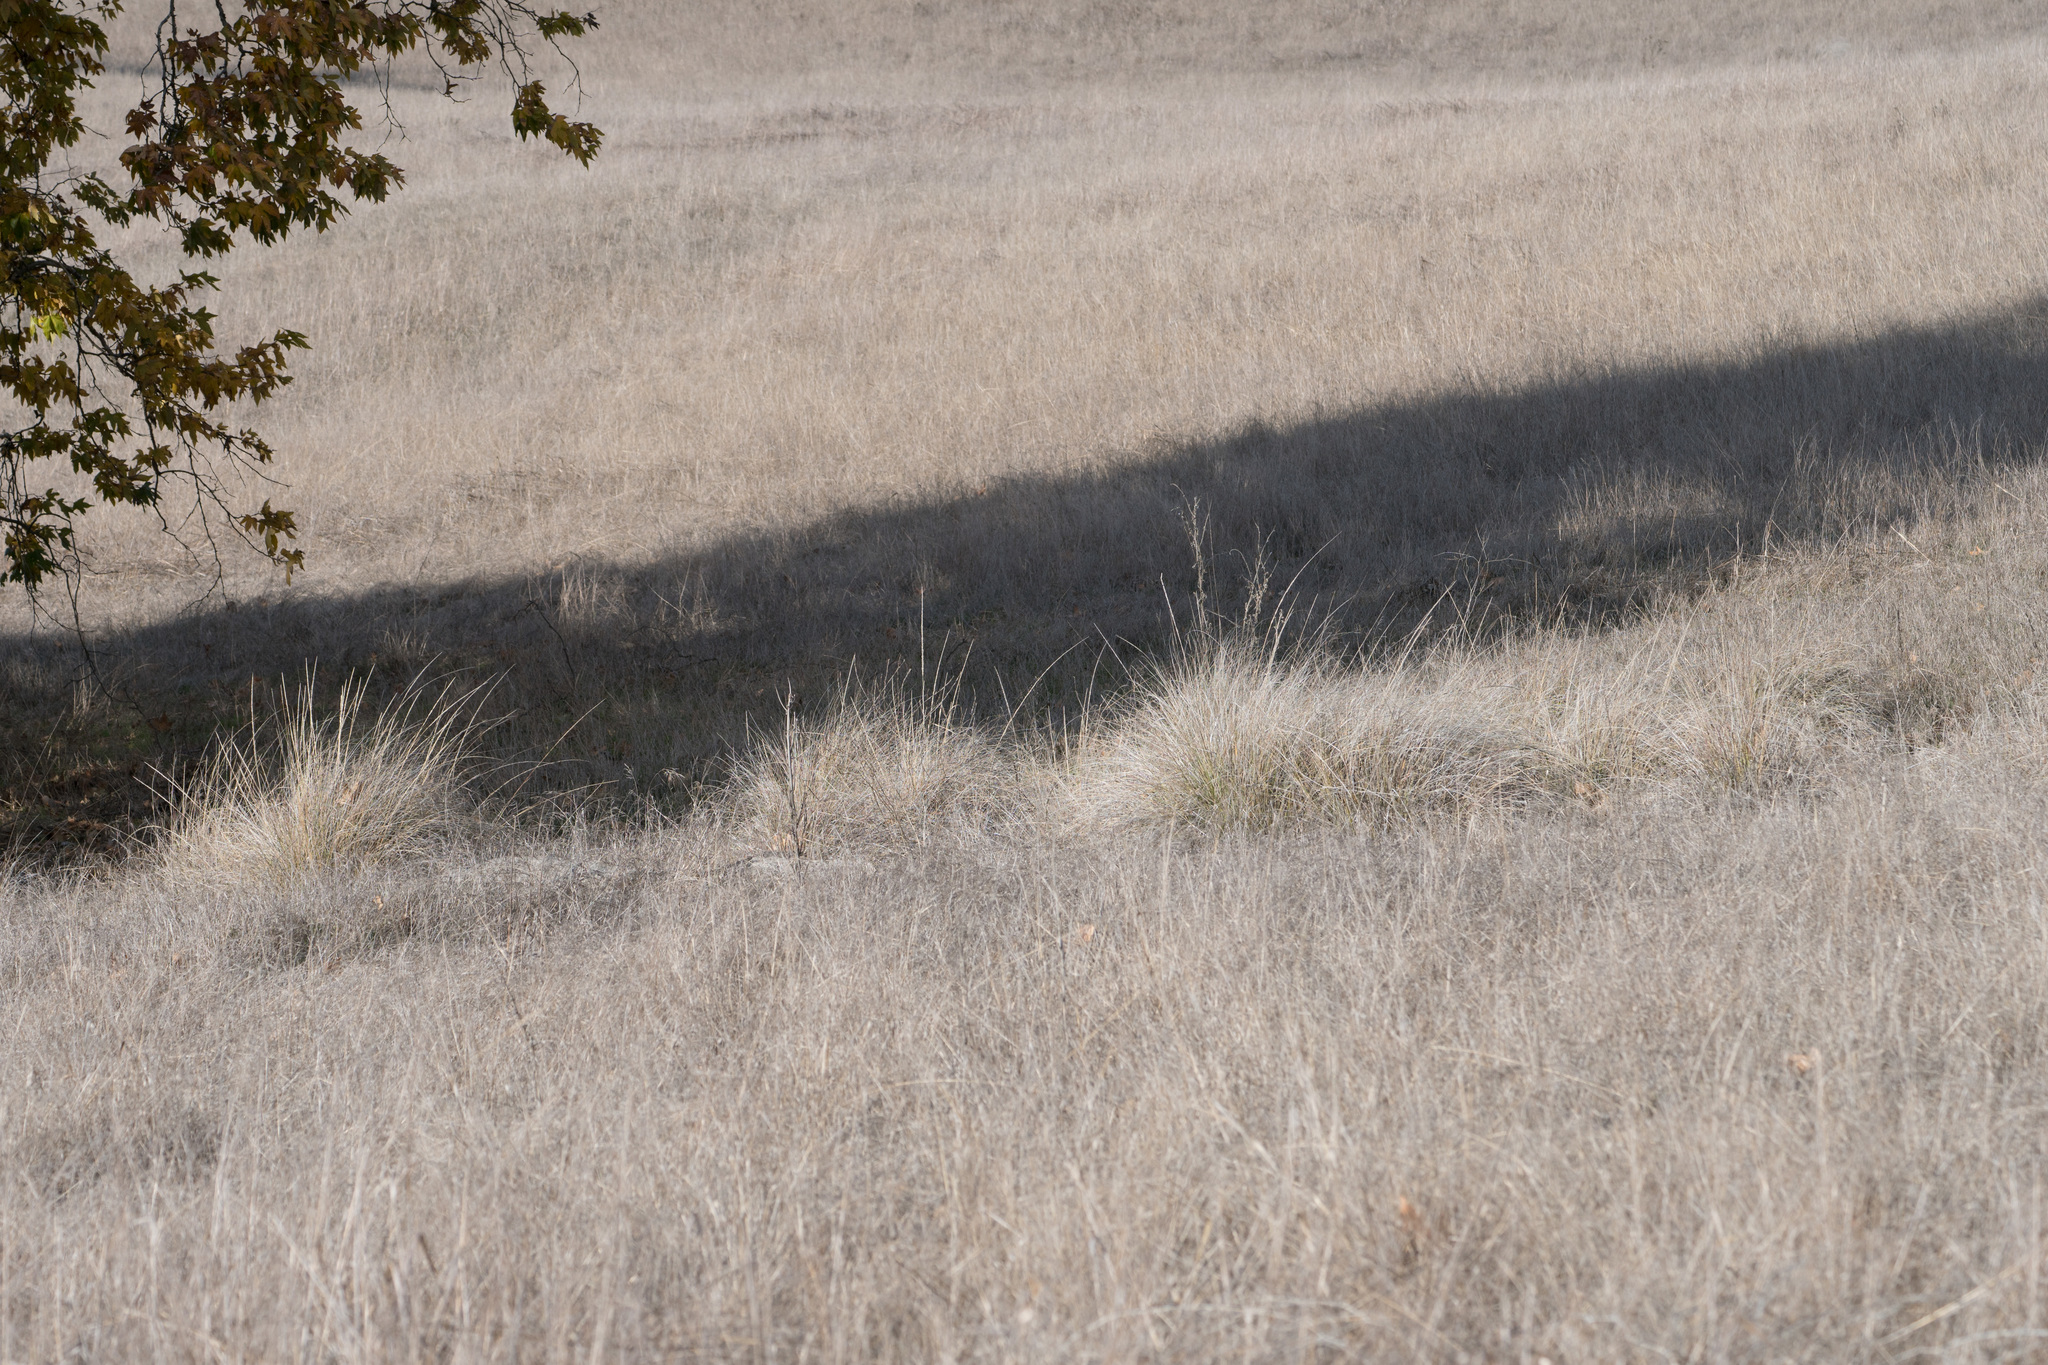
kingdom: Plantae
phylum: Tracheophyta
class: Liliopsida
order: Poales
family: Poaceae
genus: Muhlenbergia
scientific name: Muhlenbergia rigens
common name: Deer grass
